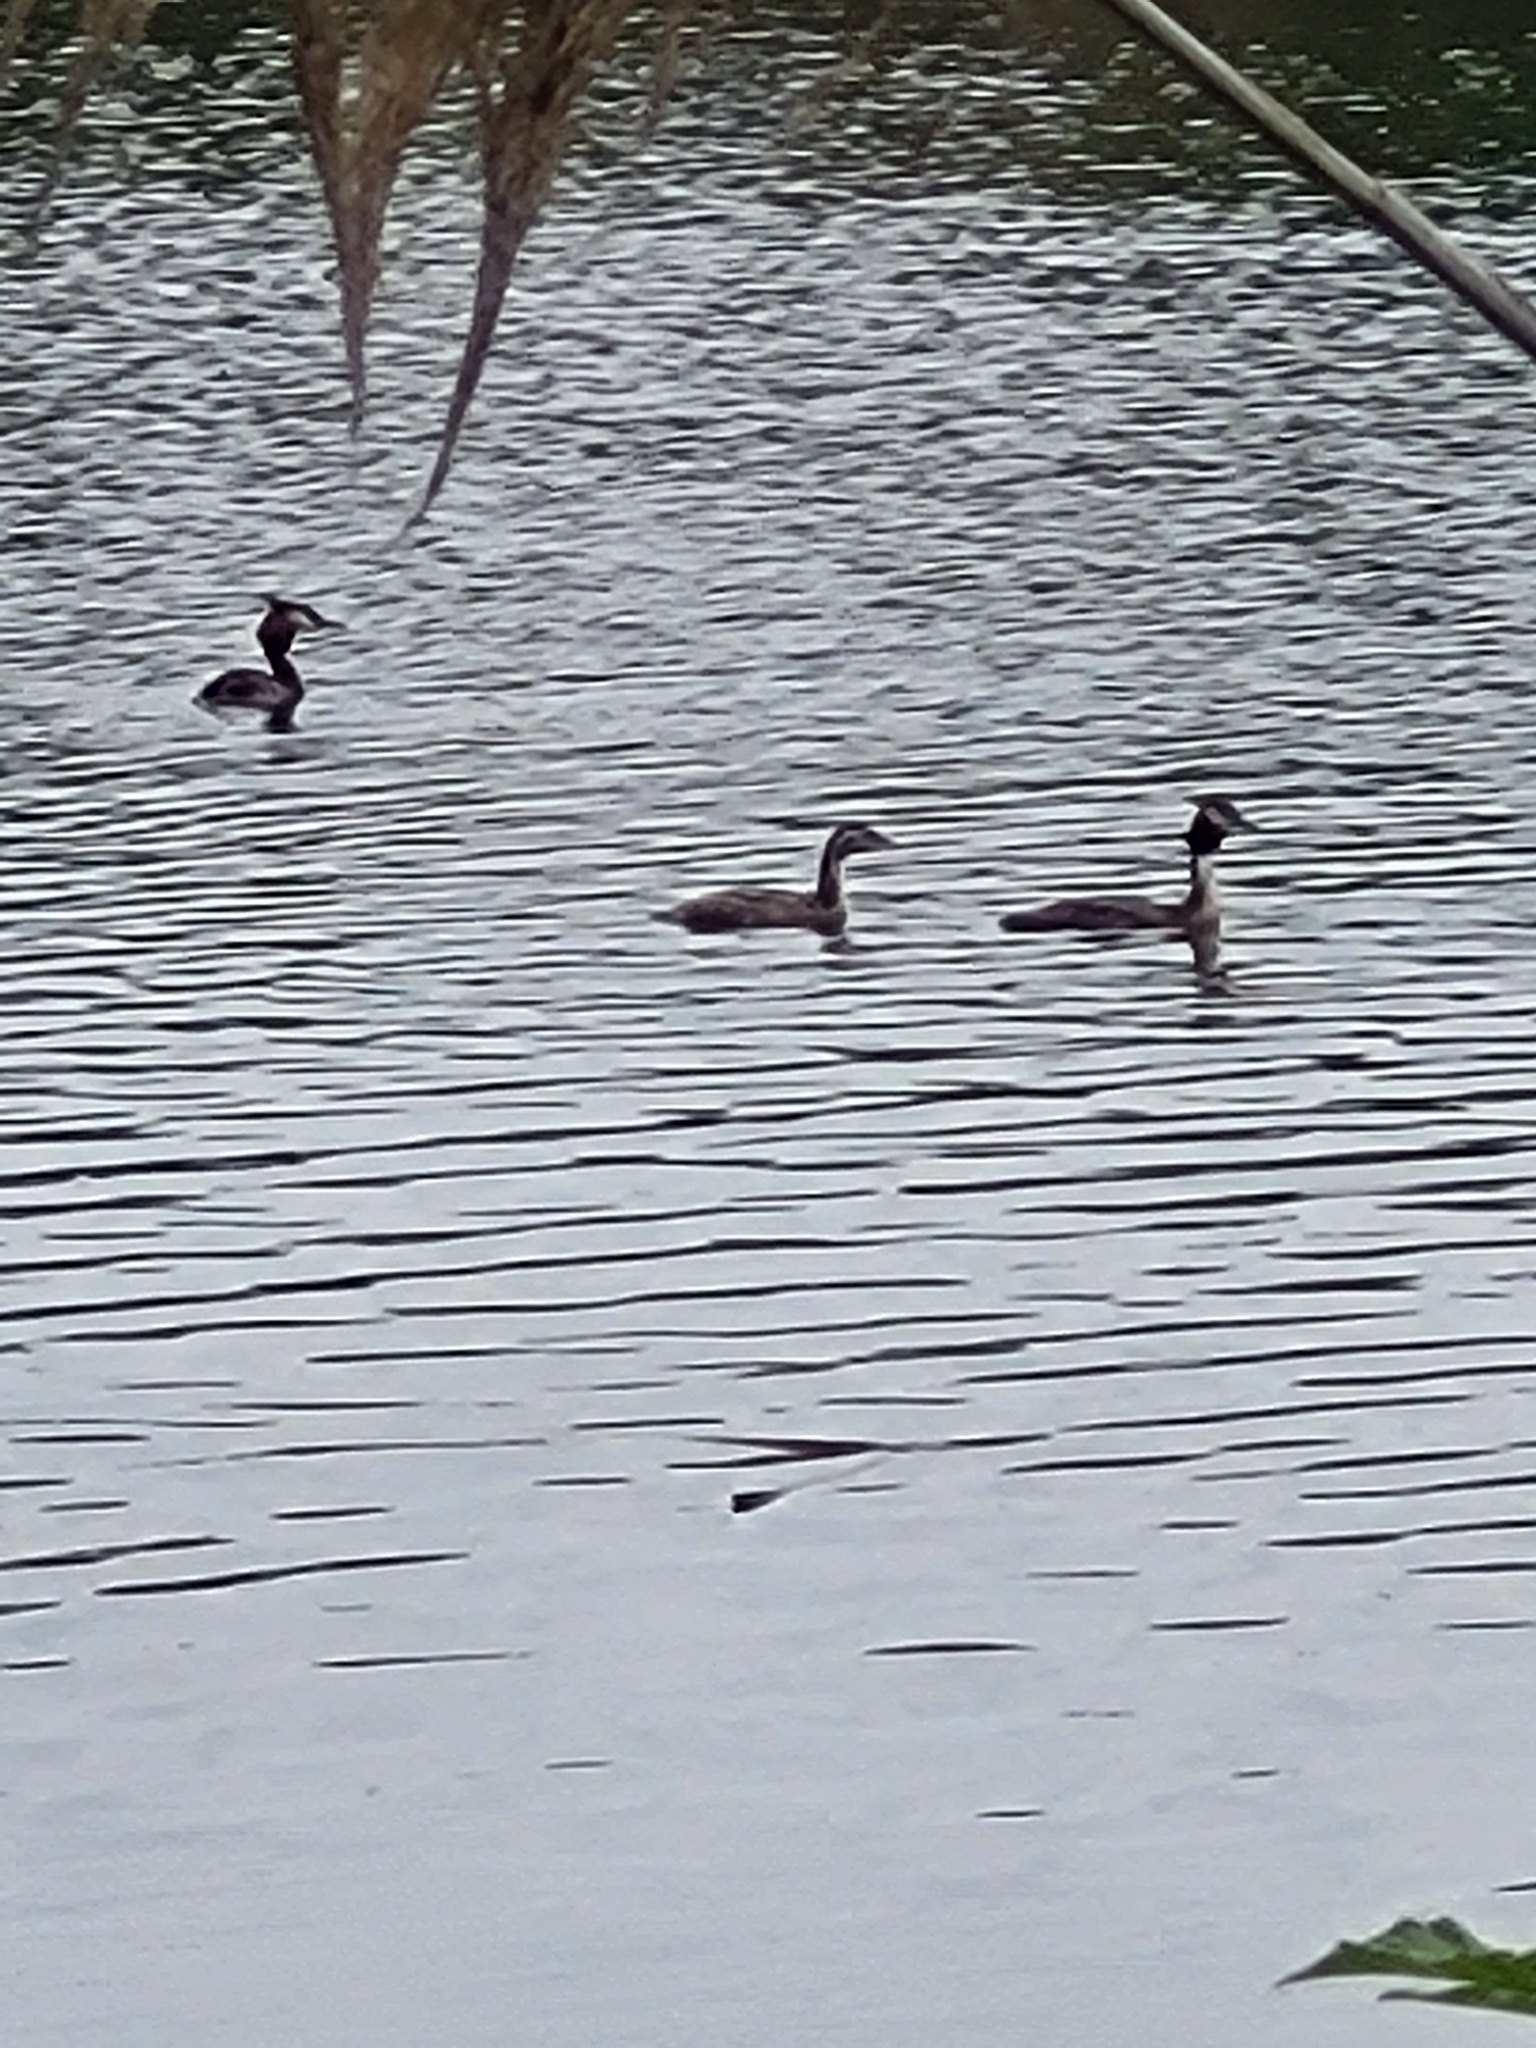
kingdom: Animalia
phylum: Chordata
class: Aves
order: Podicipediformes
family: Podicipedidae
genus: Podiceps
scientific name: Podiceps cristatus
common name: Great crested grebe
